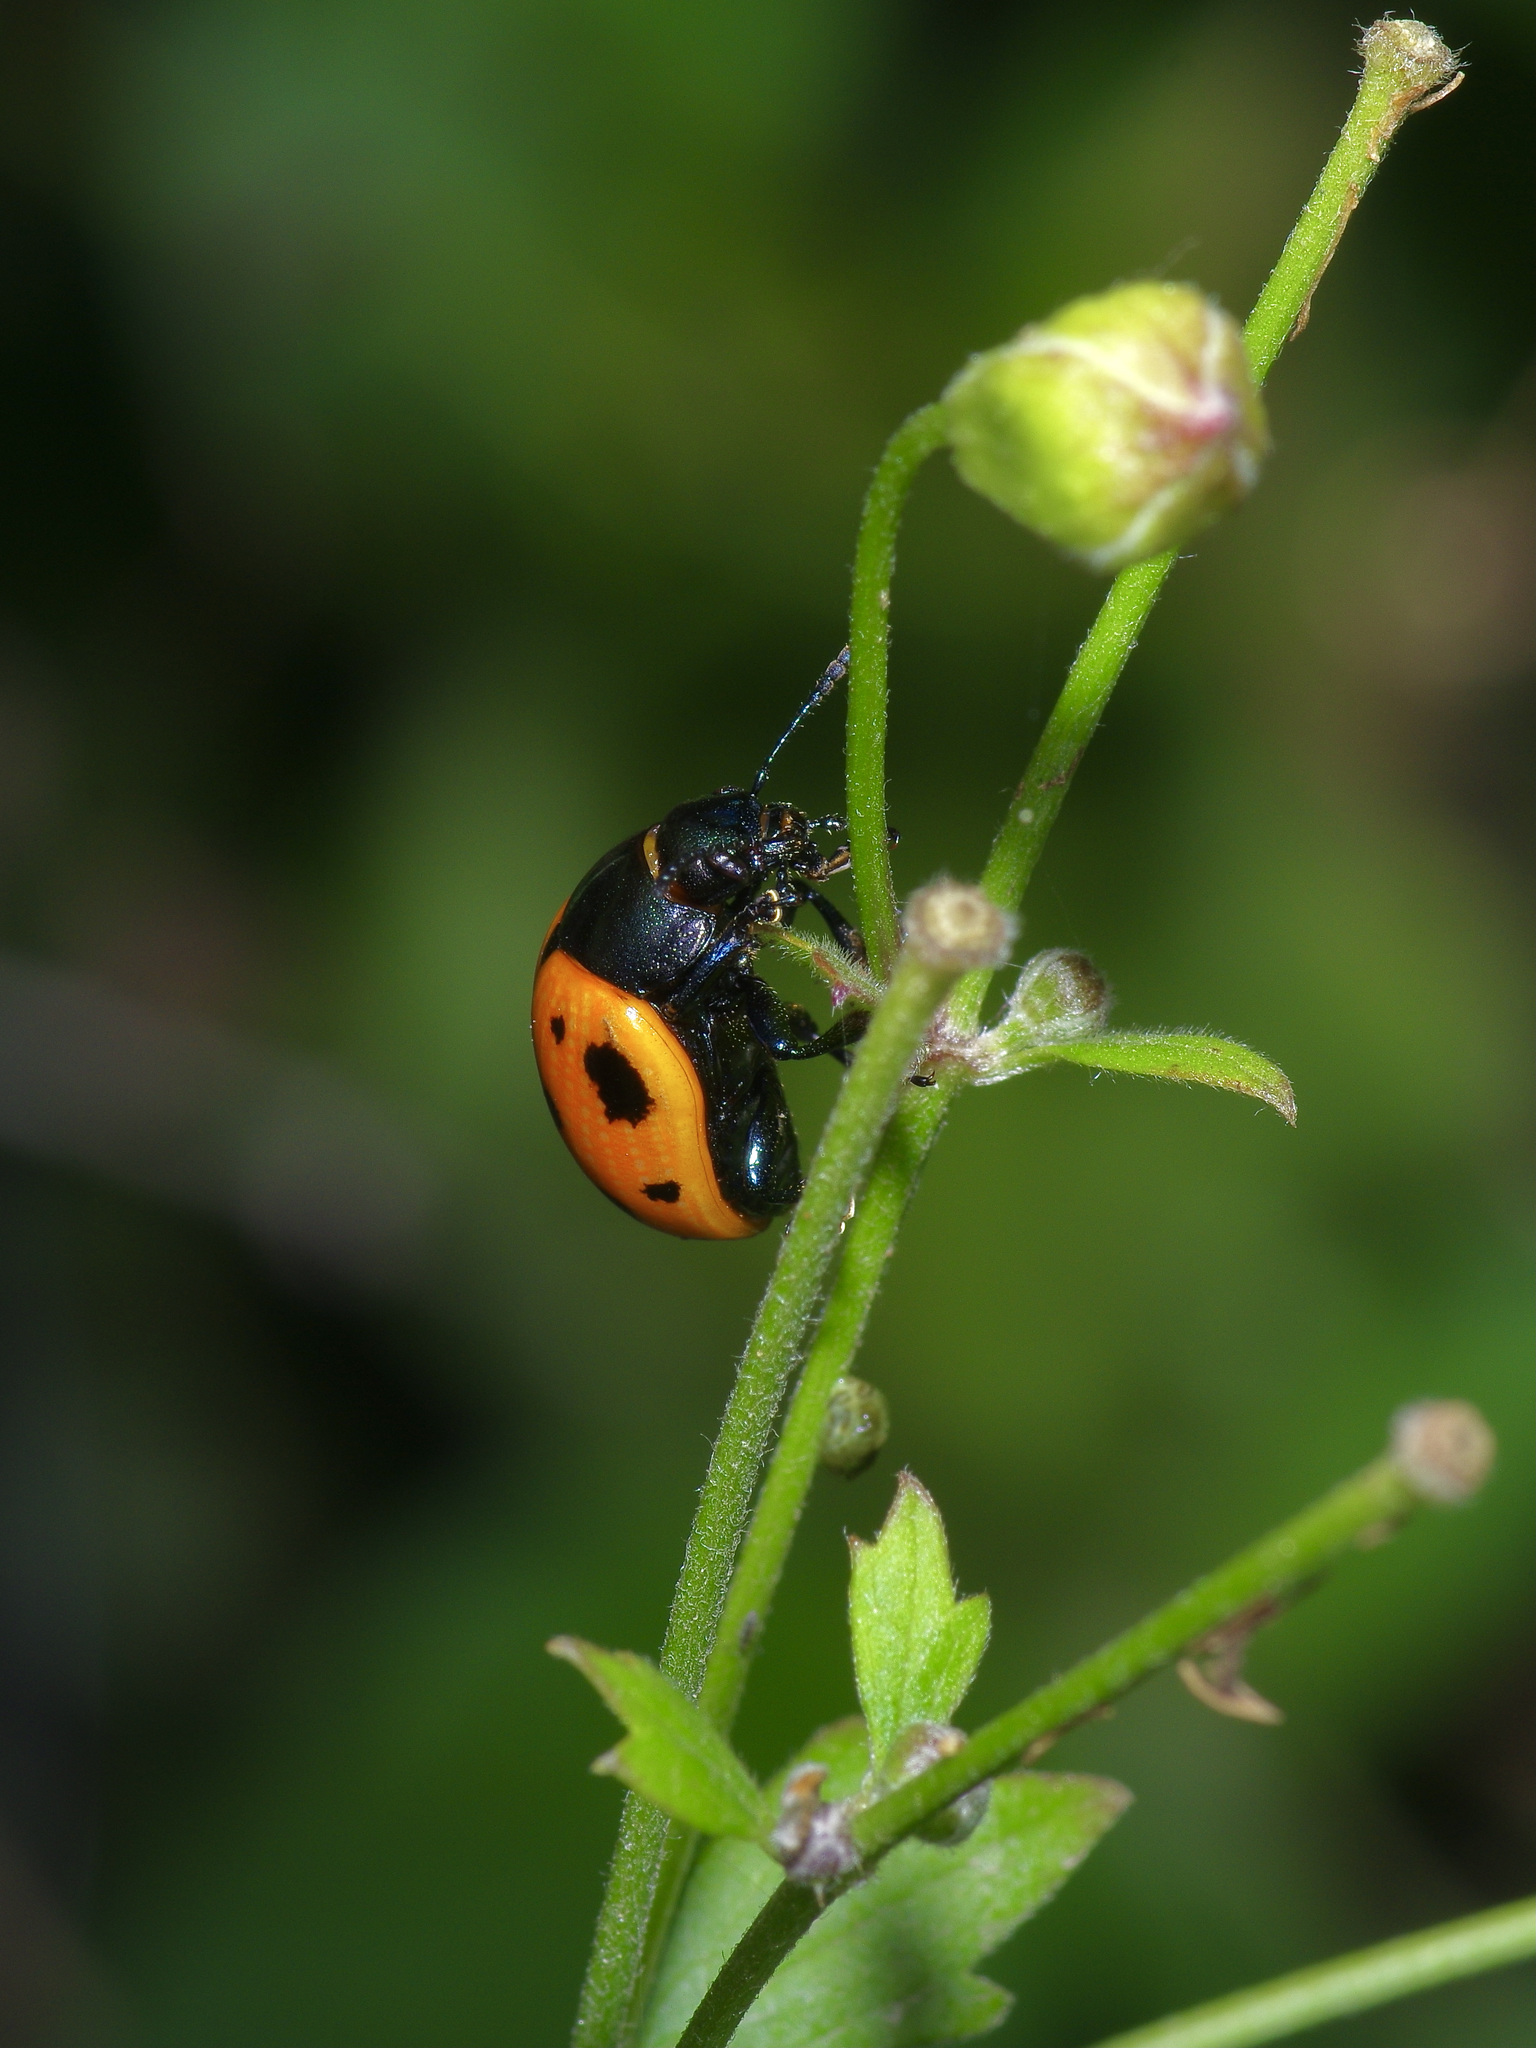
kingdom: Animalia
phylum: Arthropoda
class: Insecta
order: Coleoptera
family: Chrysomelidae
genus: Labidomera
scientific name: Labidomera clivicollis
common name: Swamp milkweed leaf beetle
